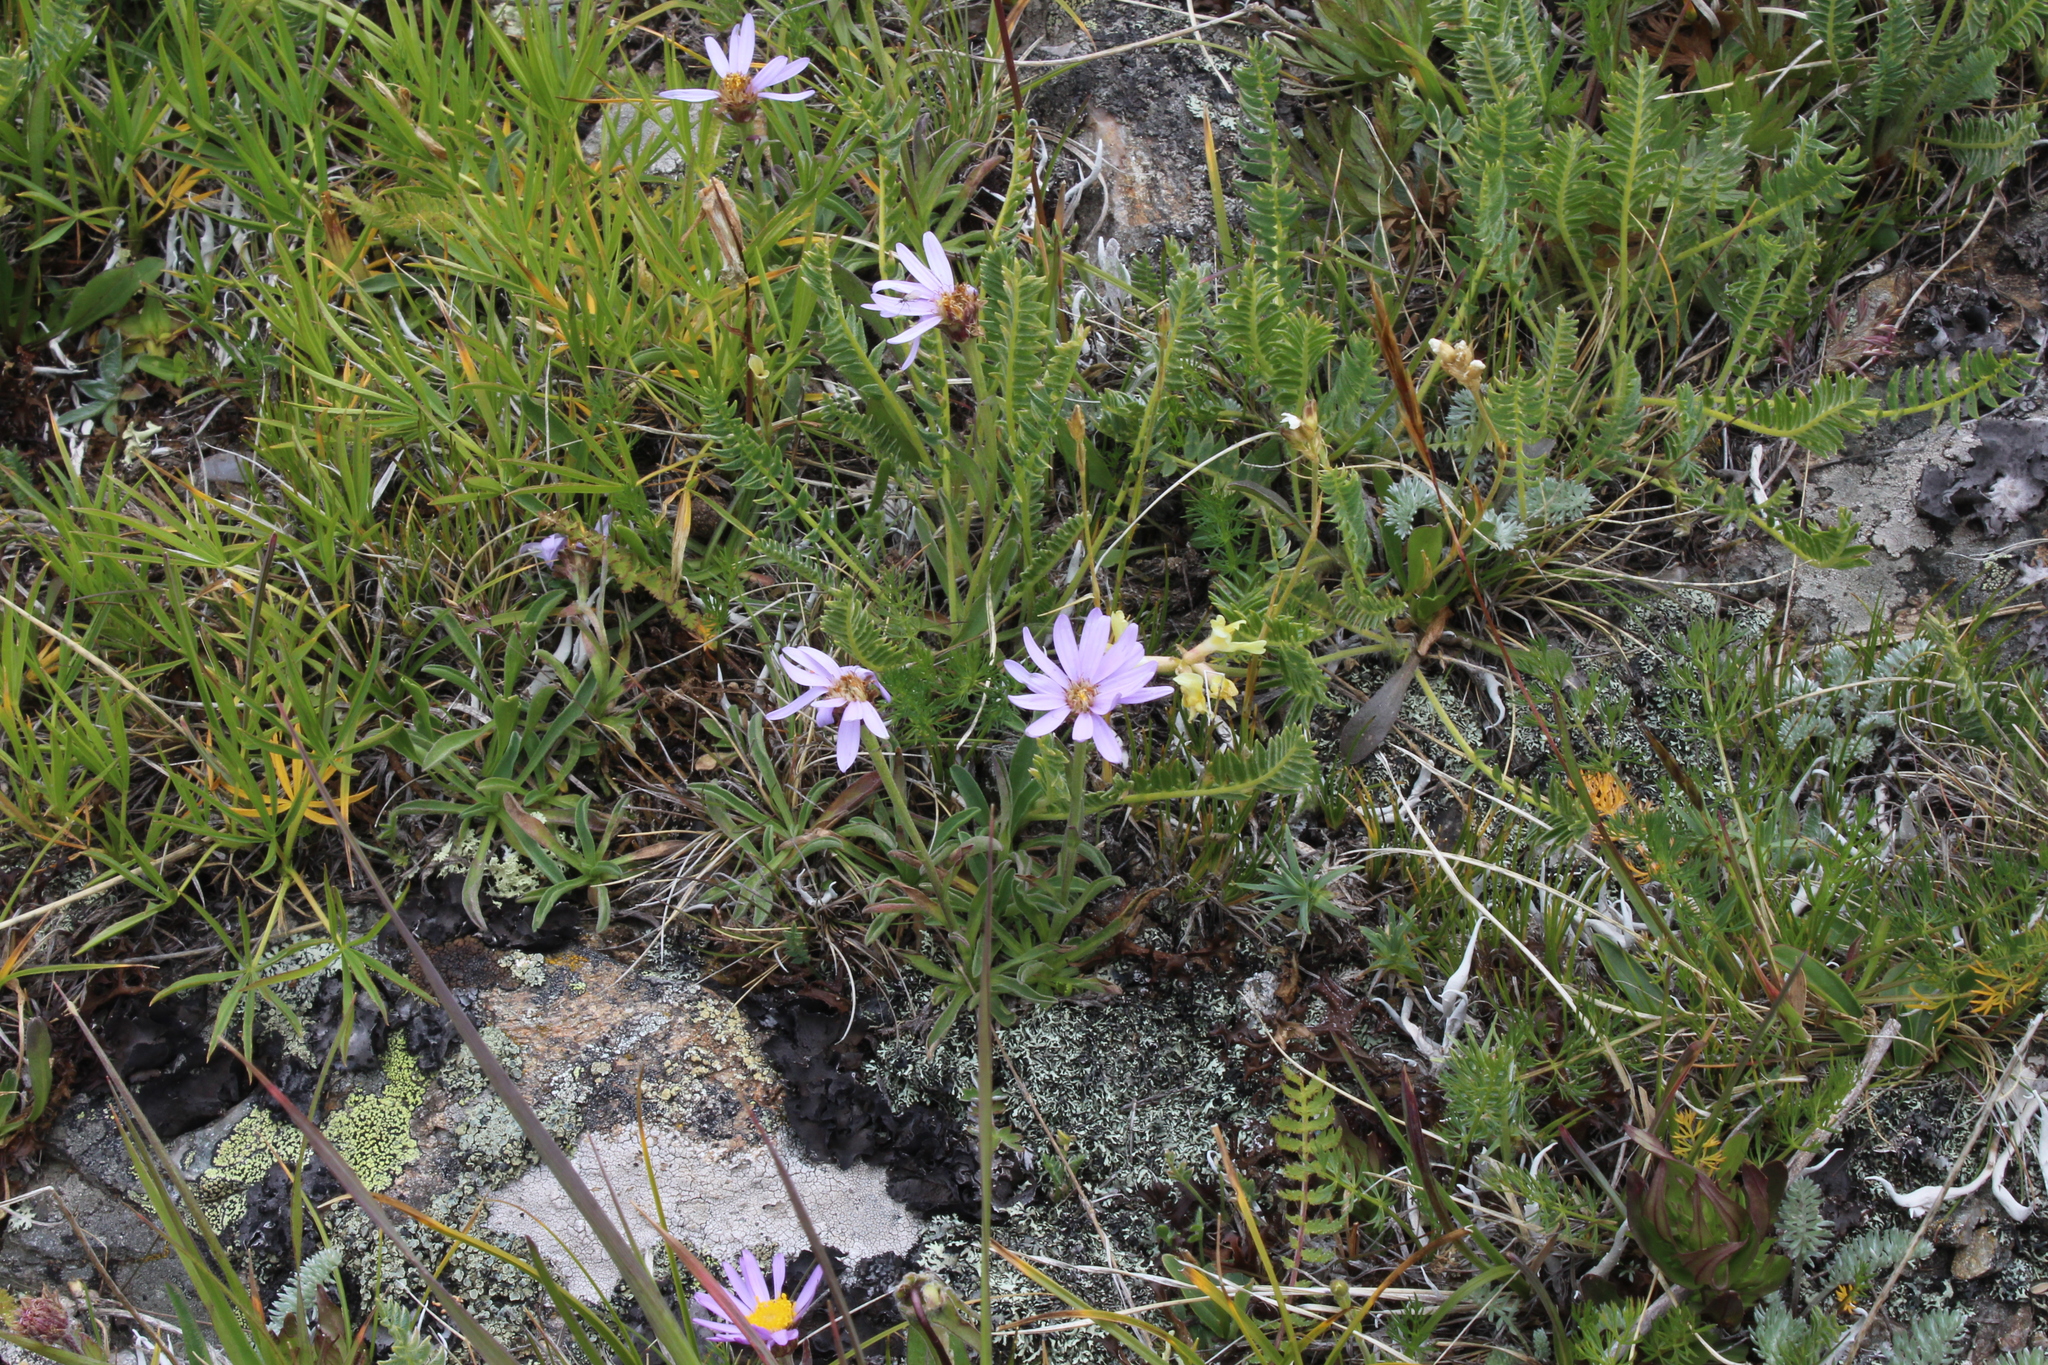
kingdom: Plantae
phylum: Tracheophyta
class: Magnoliopsida
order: Asterales
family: Asteraceae
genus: Aster
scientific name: Aster alpinus
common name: Alpine aster
